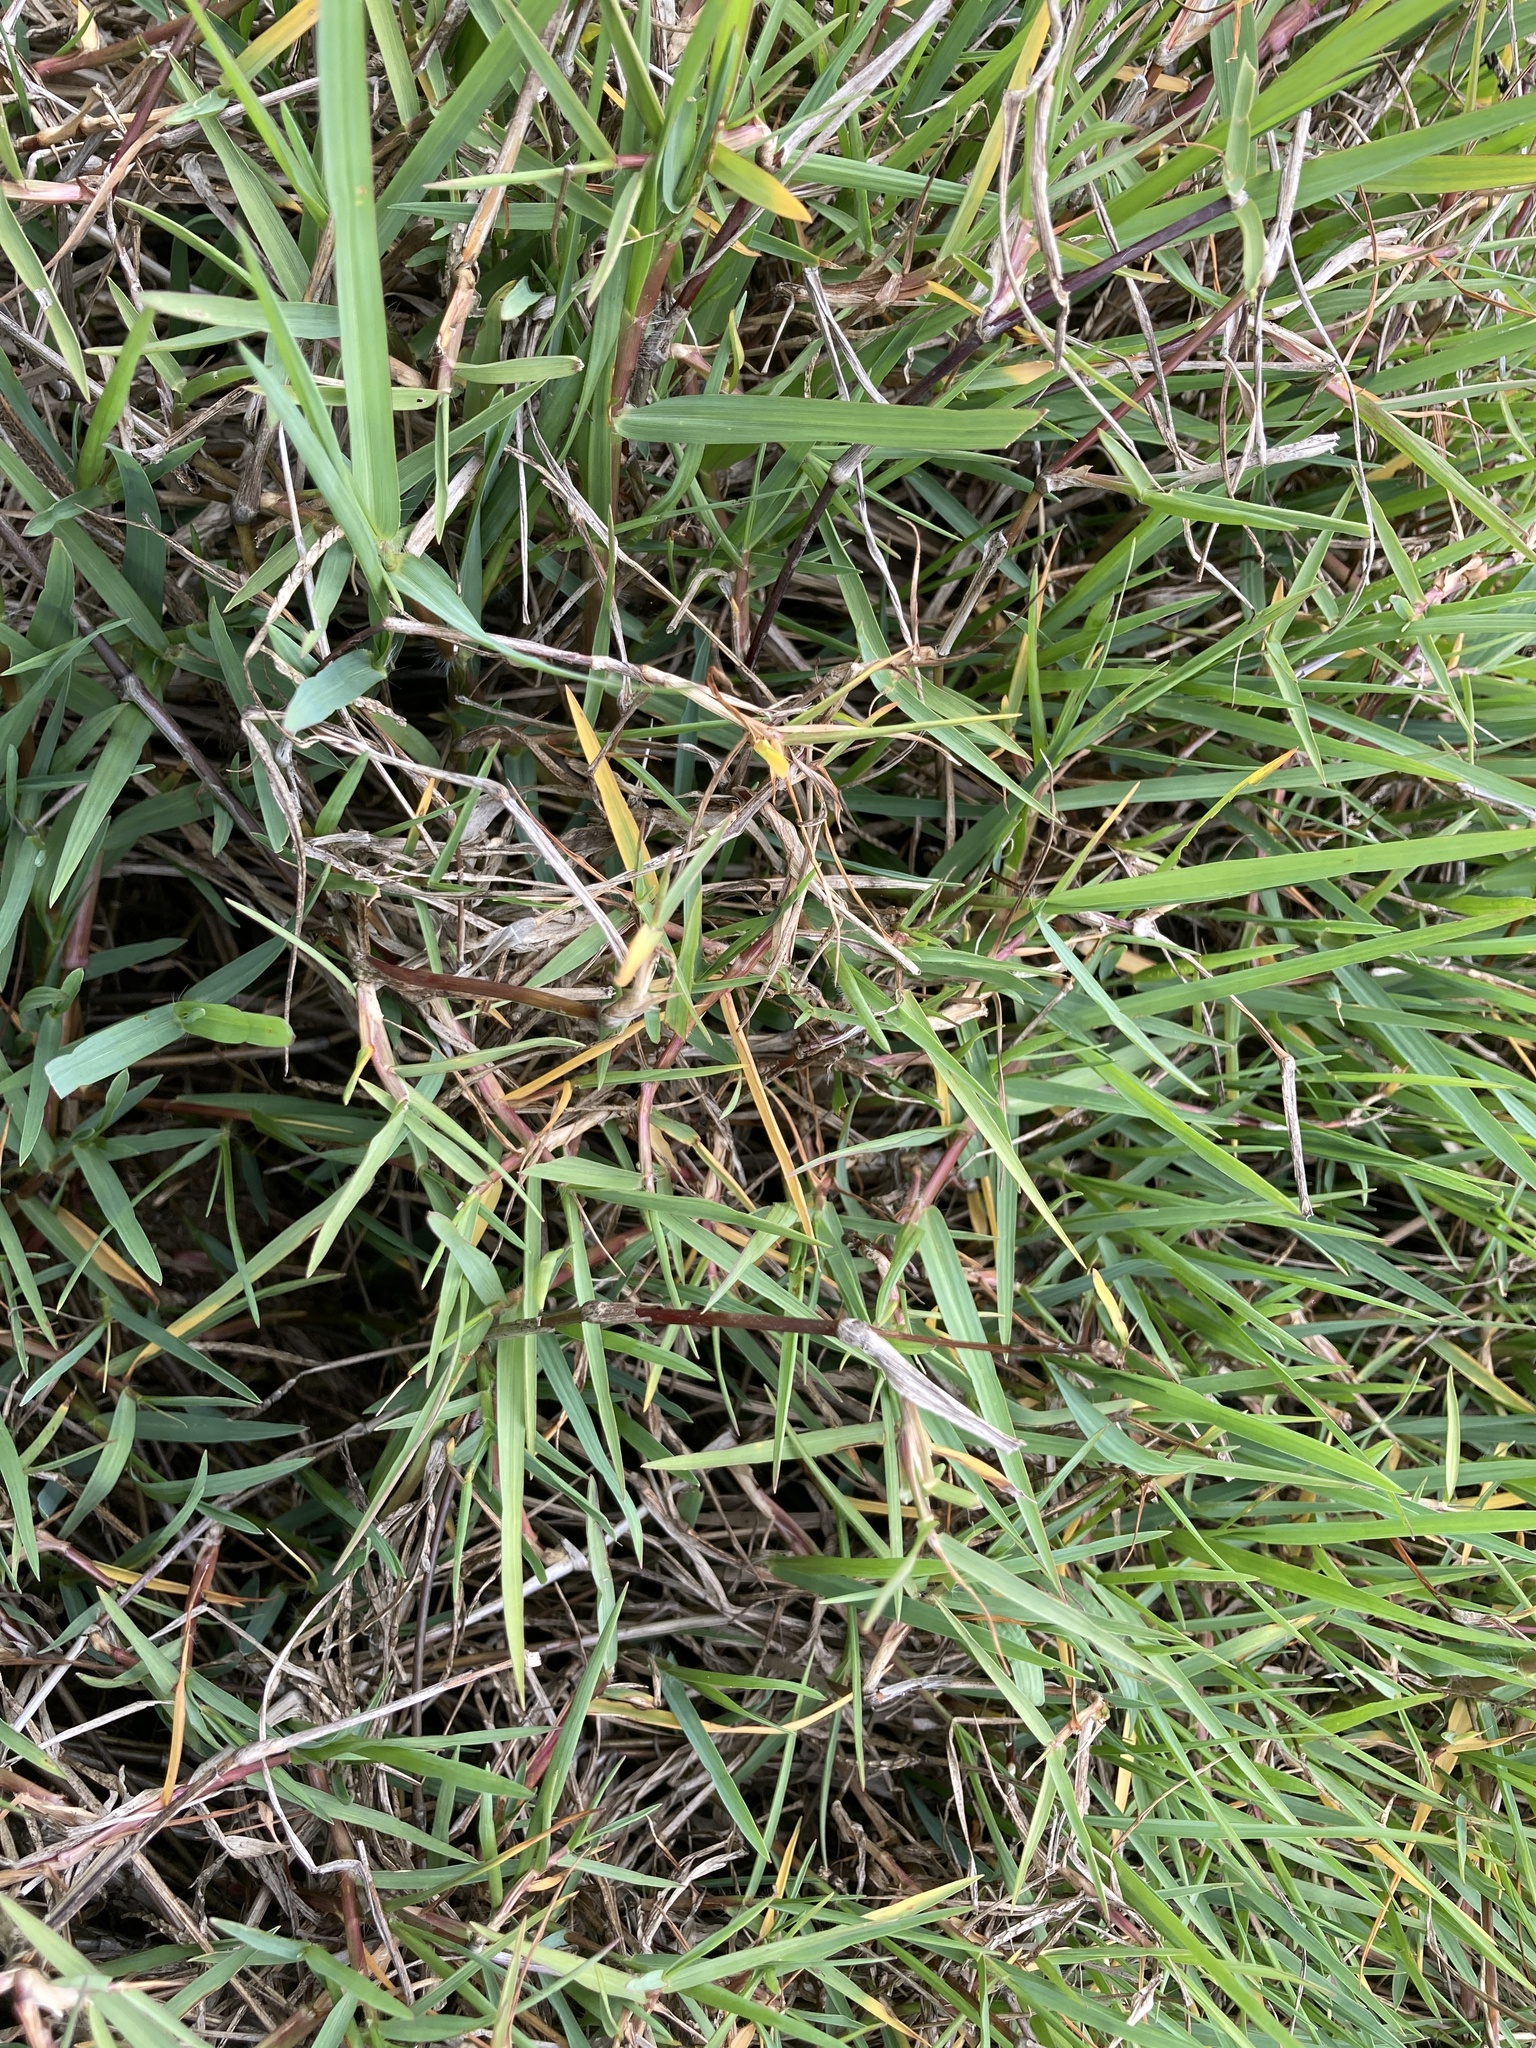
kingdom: Plantae
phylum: Tracheophyta
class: Liliopsida
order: Poales
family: Poaceae
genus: Stenotaphrum
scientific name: Stenotaphrum secundatum
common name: St. augustine grass
